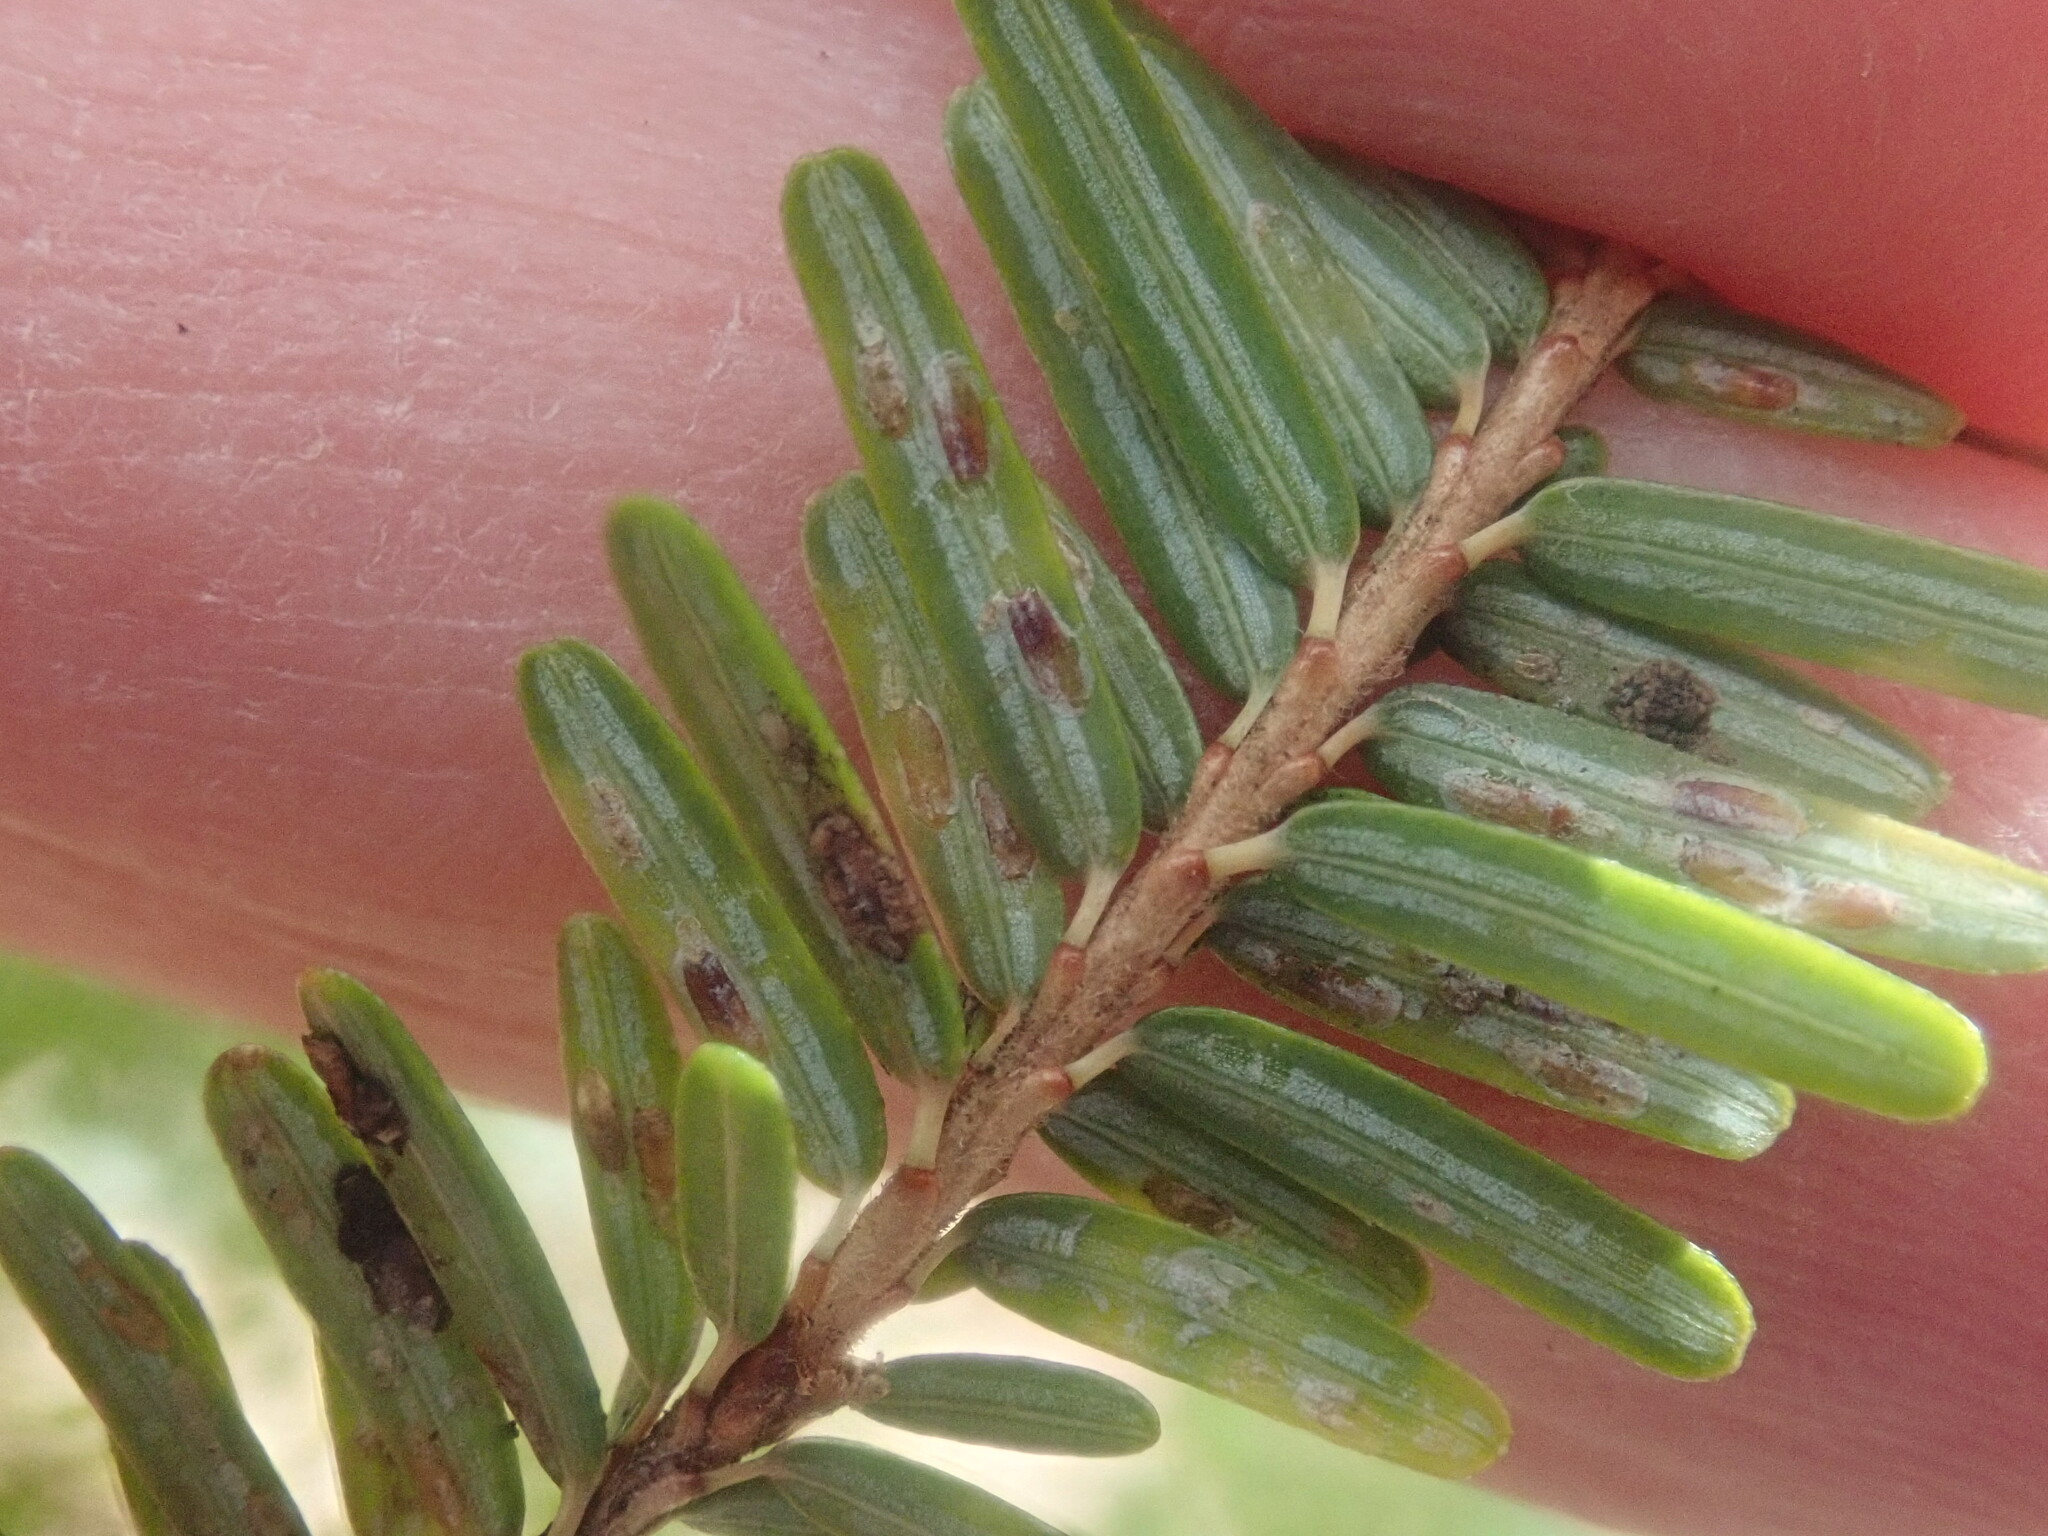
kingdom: Animalia
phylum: Arthropoda
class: Insecta
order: Hemiptera
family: Diaspididae
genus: Fiorinia
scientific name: Fiorinia externa
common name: Elongate hemlock scale
